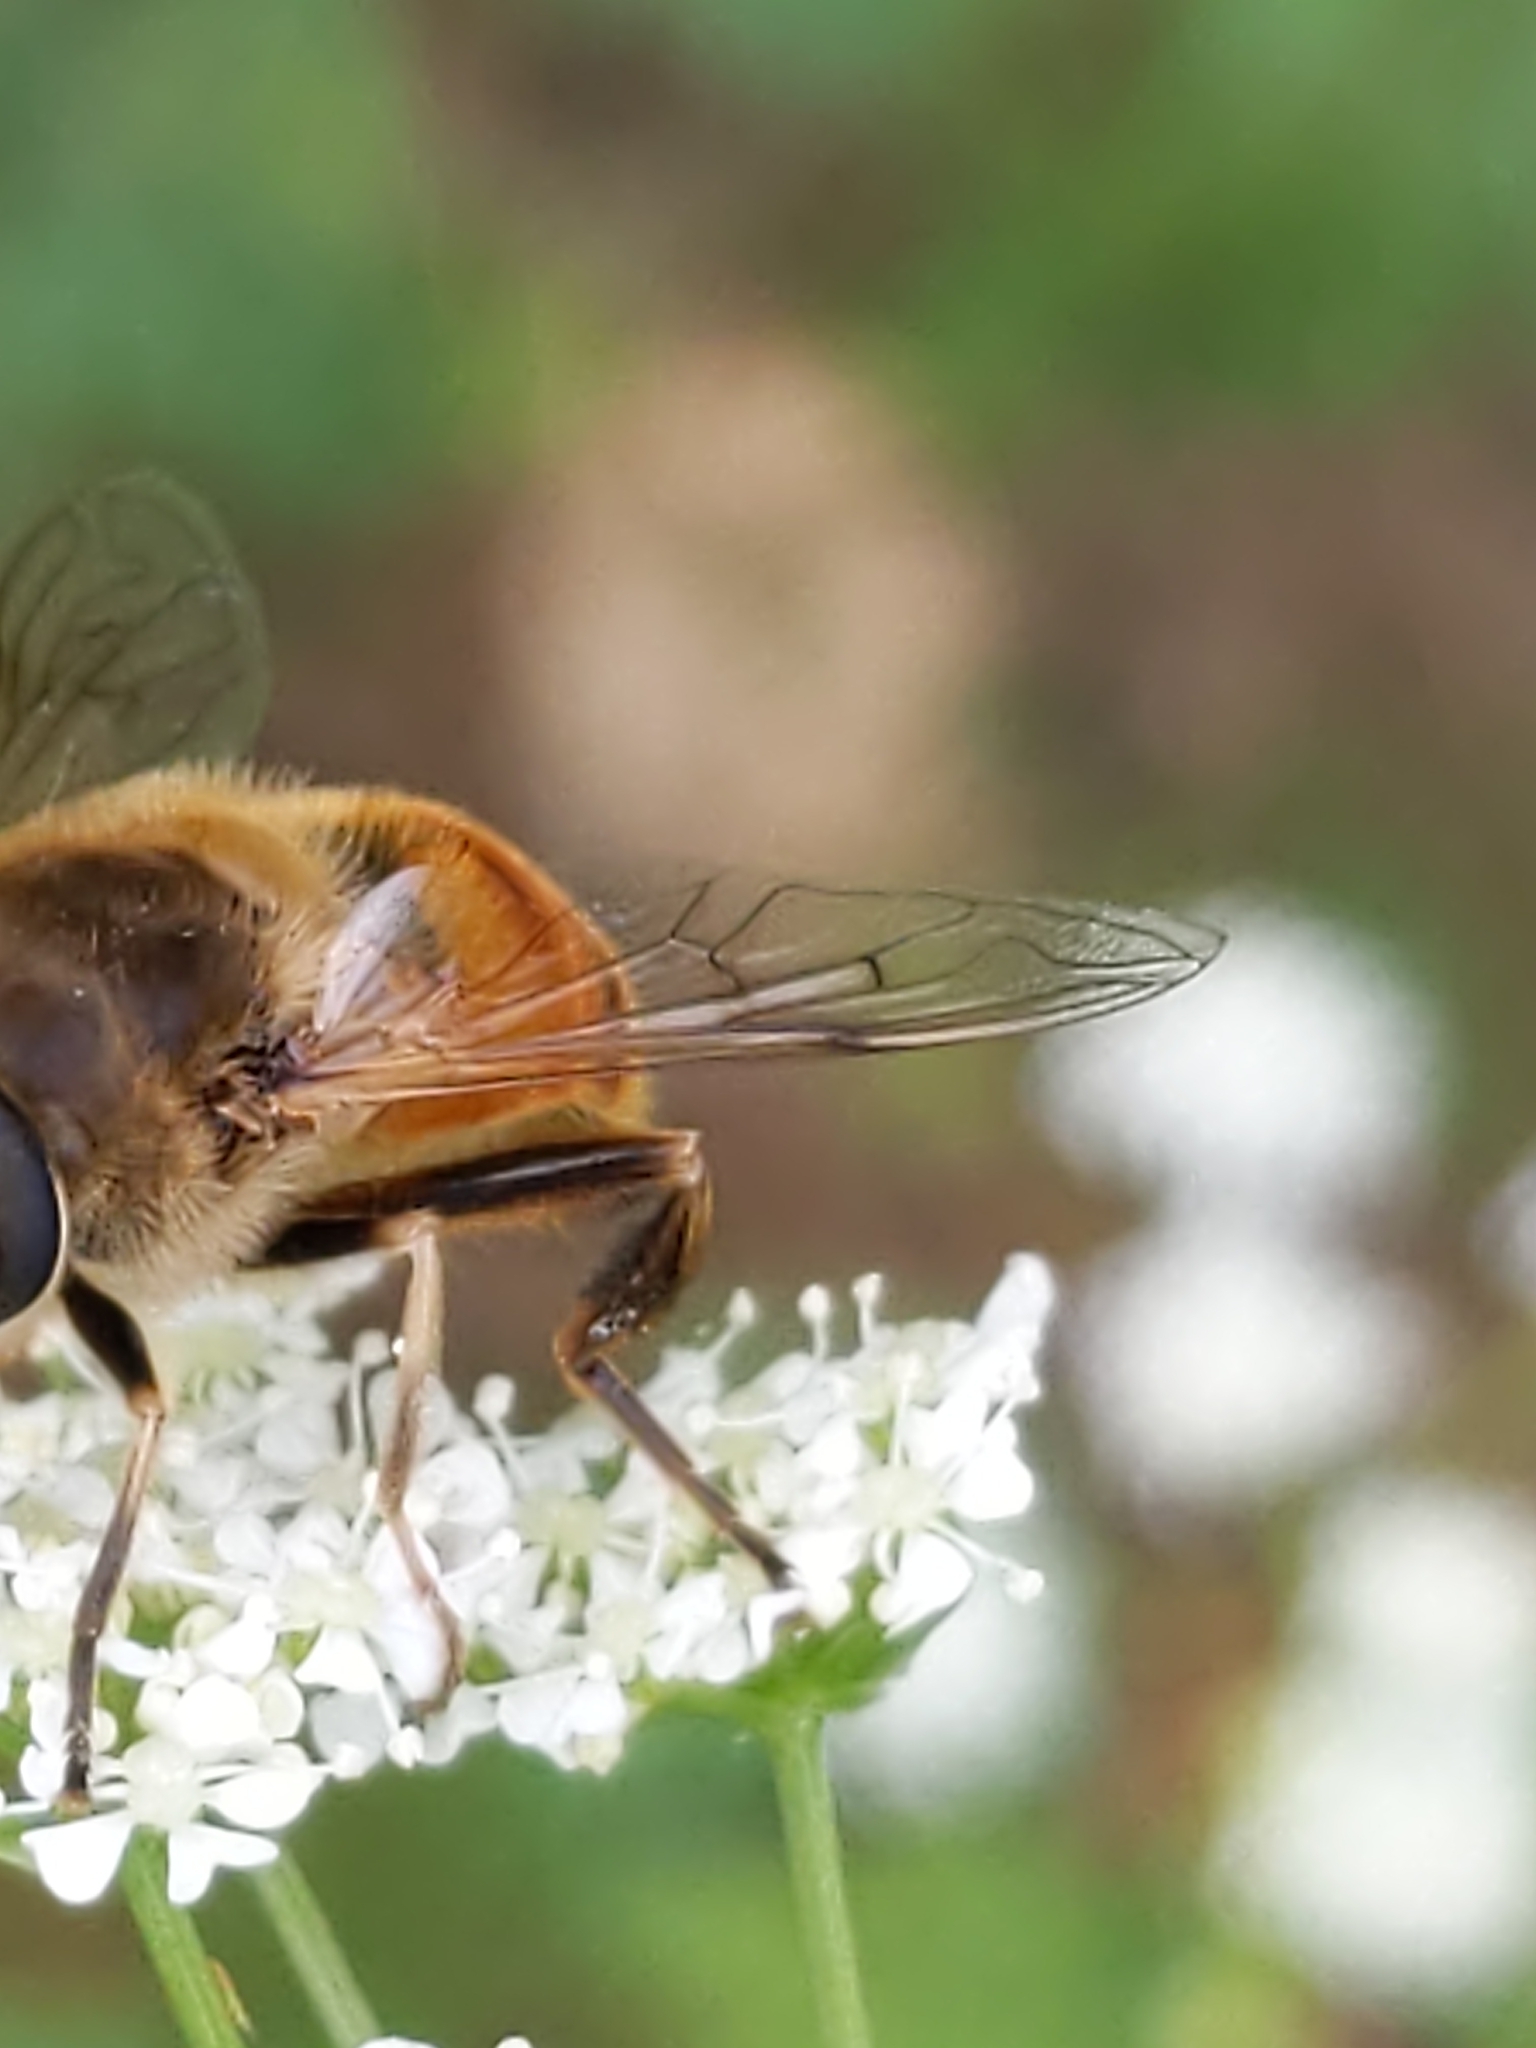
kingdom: Animalia
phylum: Arthropoda
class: Insecta
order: Diptera
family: Syrphidae
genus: Eristalis
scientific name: Eristalis tenax
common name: Drone fly
